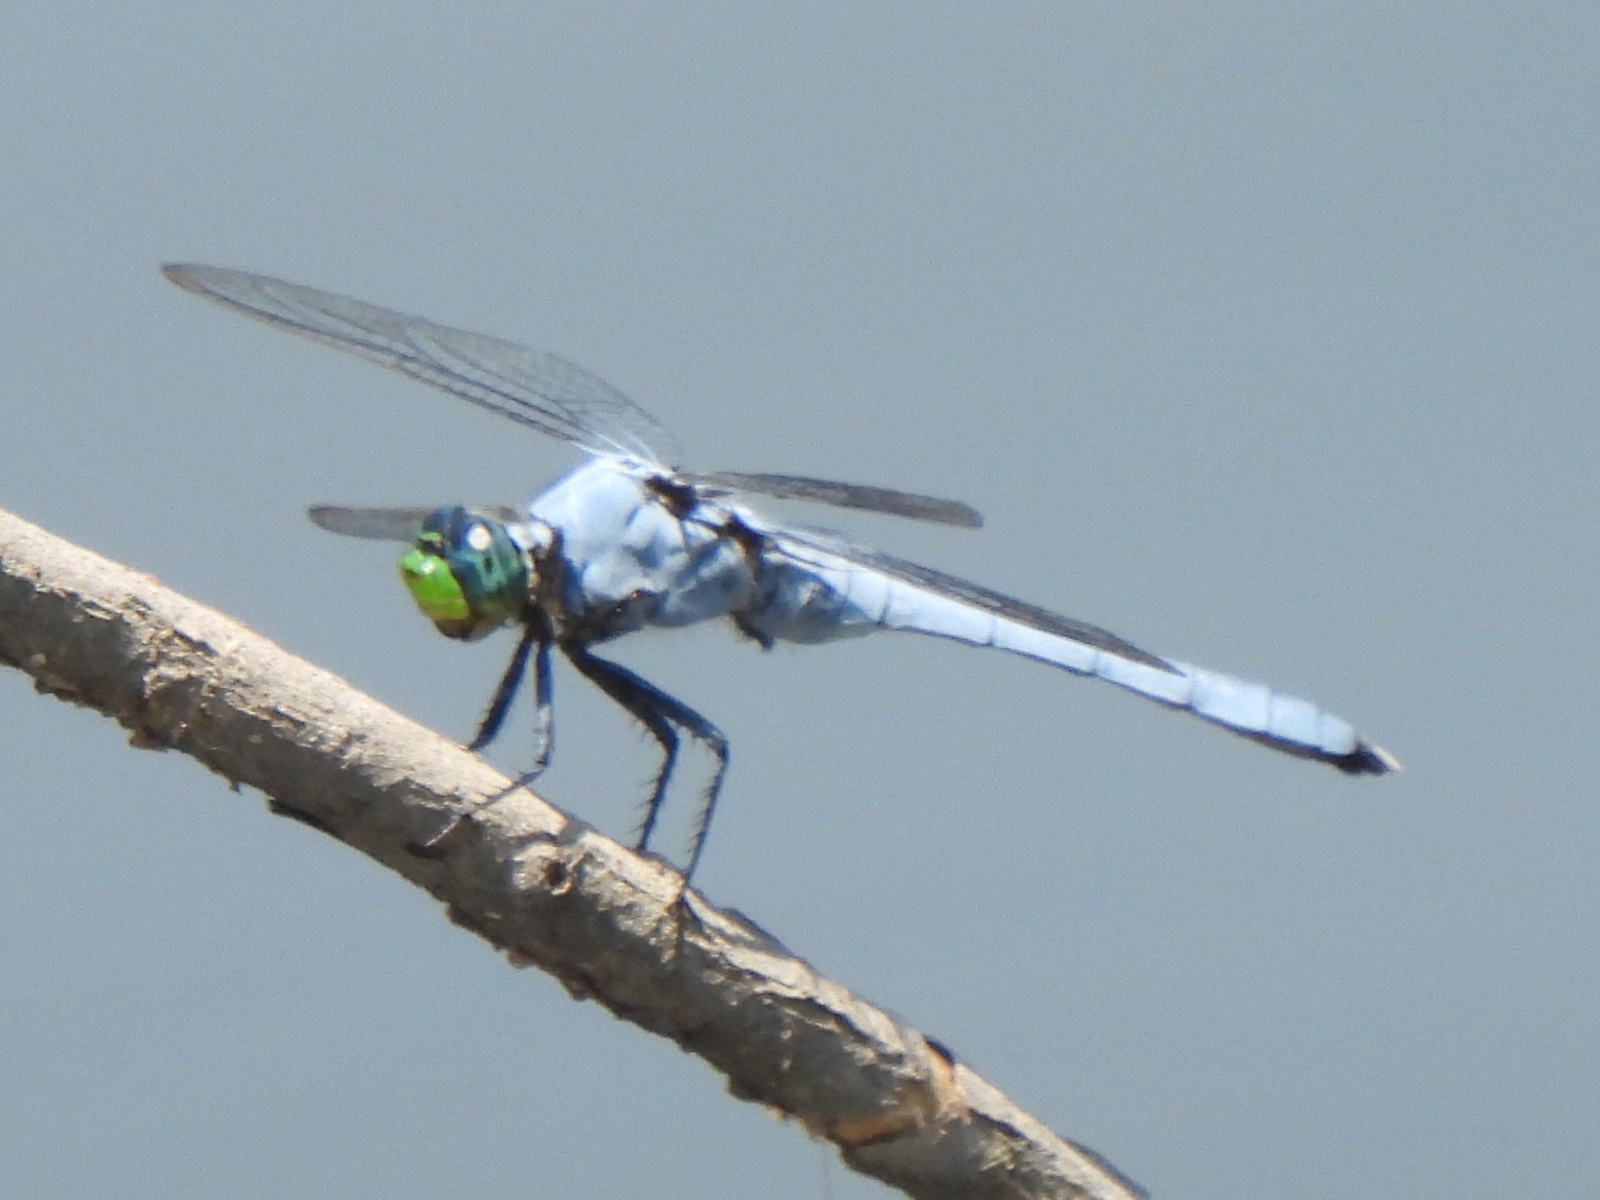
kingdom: Animalia
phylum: Arthropoda
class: Insecta
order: Odonata
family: Libellulidae
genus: Erythemis
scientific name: Erythemis simplicicollis
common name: Eastern pondhawk
